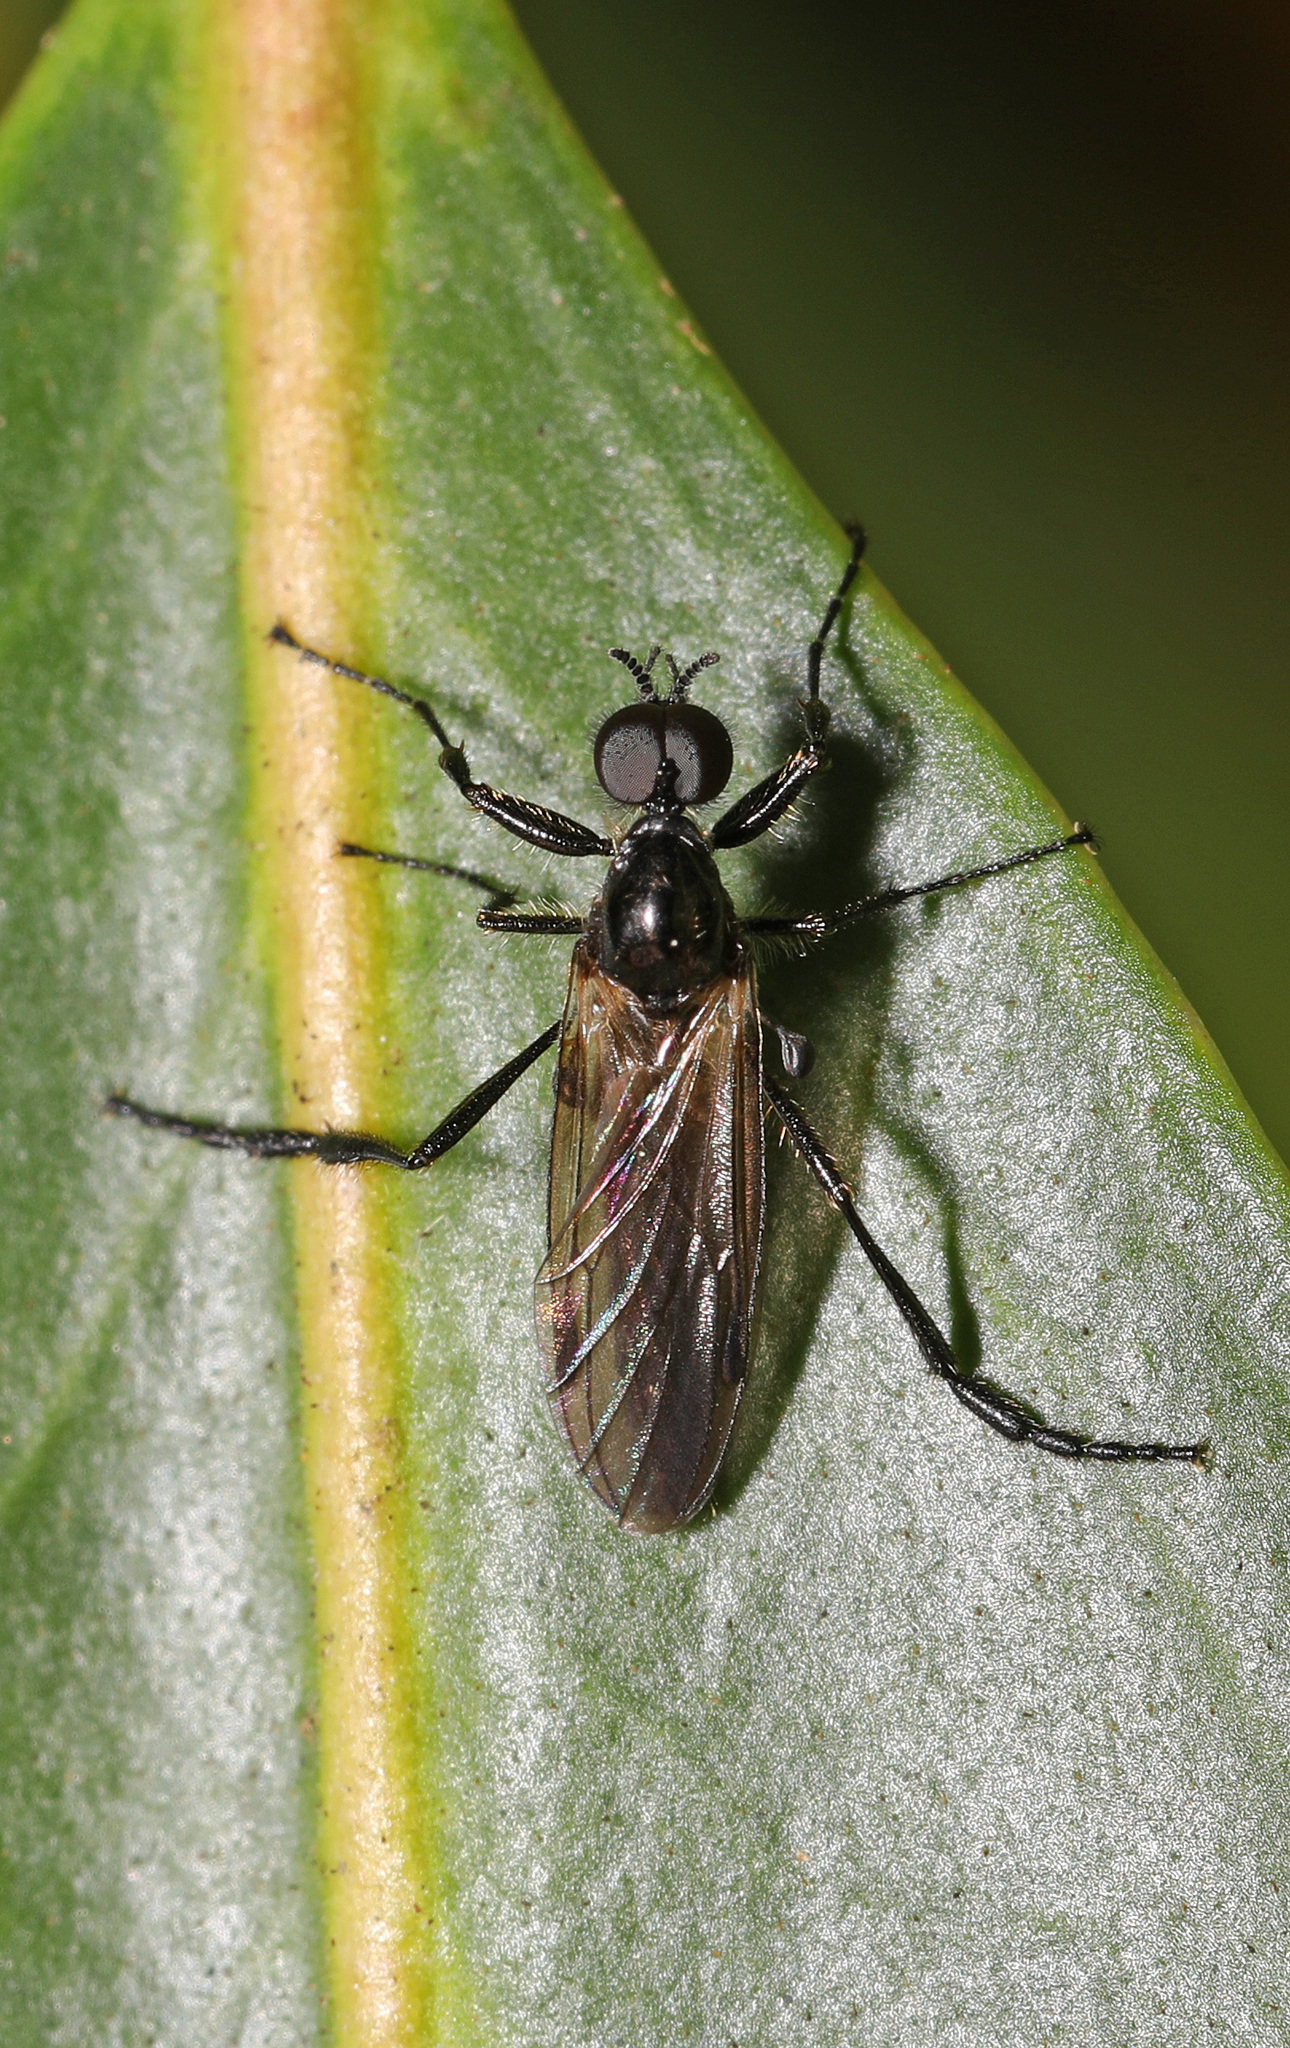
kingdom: Animalia
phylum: Arthropoda
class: Insecta
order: Diptera
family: Bibionidae
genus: Bibio
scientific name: Bibio slossonae
